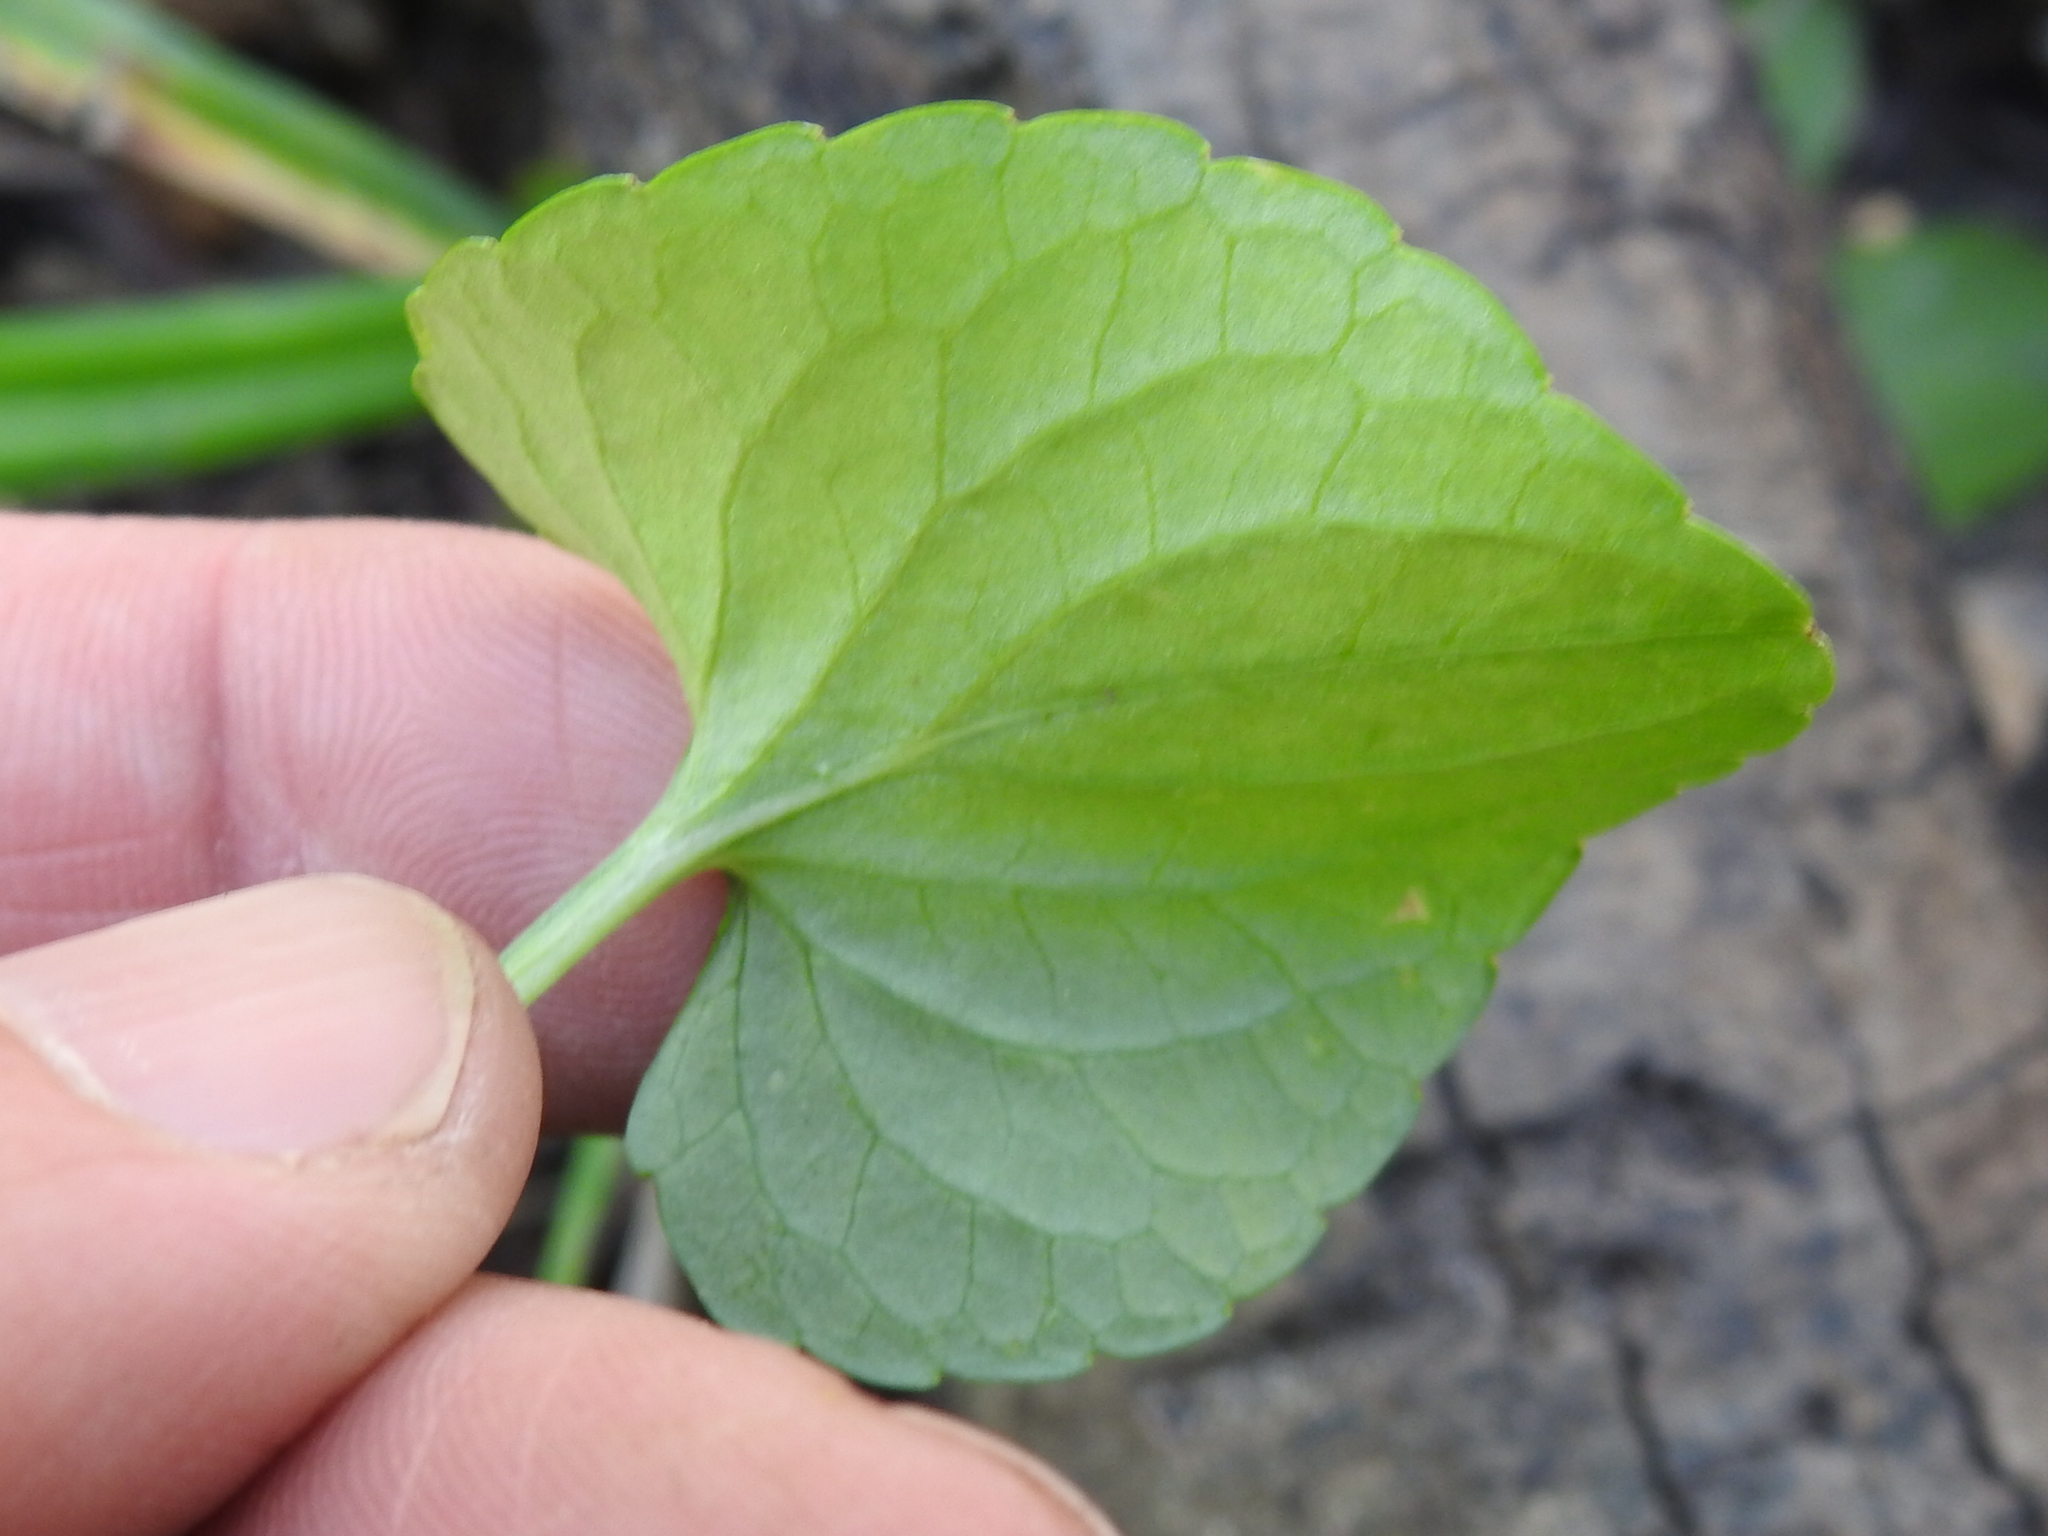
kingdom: Plantae
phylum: Tracheophyta
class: Magnoliopsida
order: Malpighiales
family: Violaceae
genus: Viola
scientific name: Viola nephrophylla
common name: Blue meadow violet
